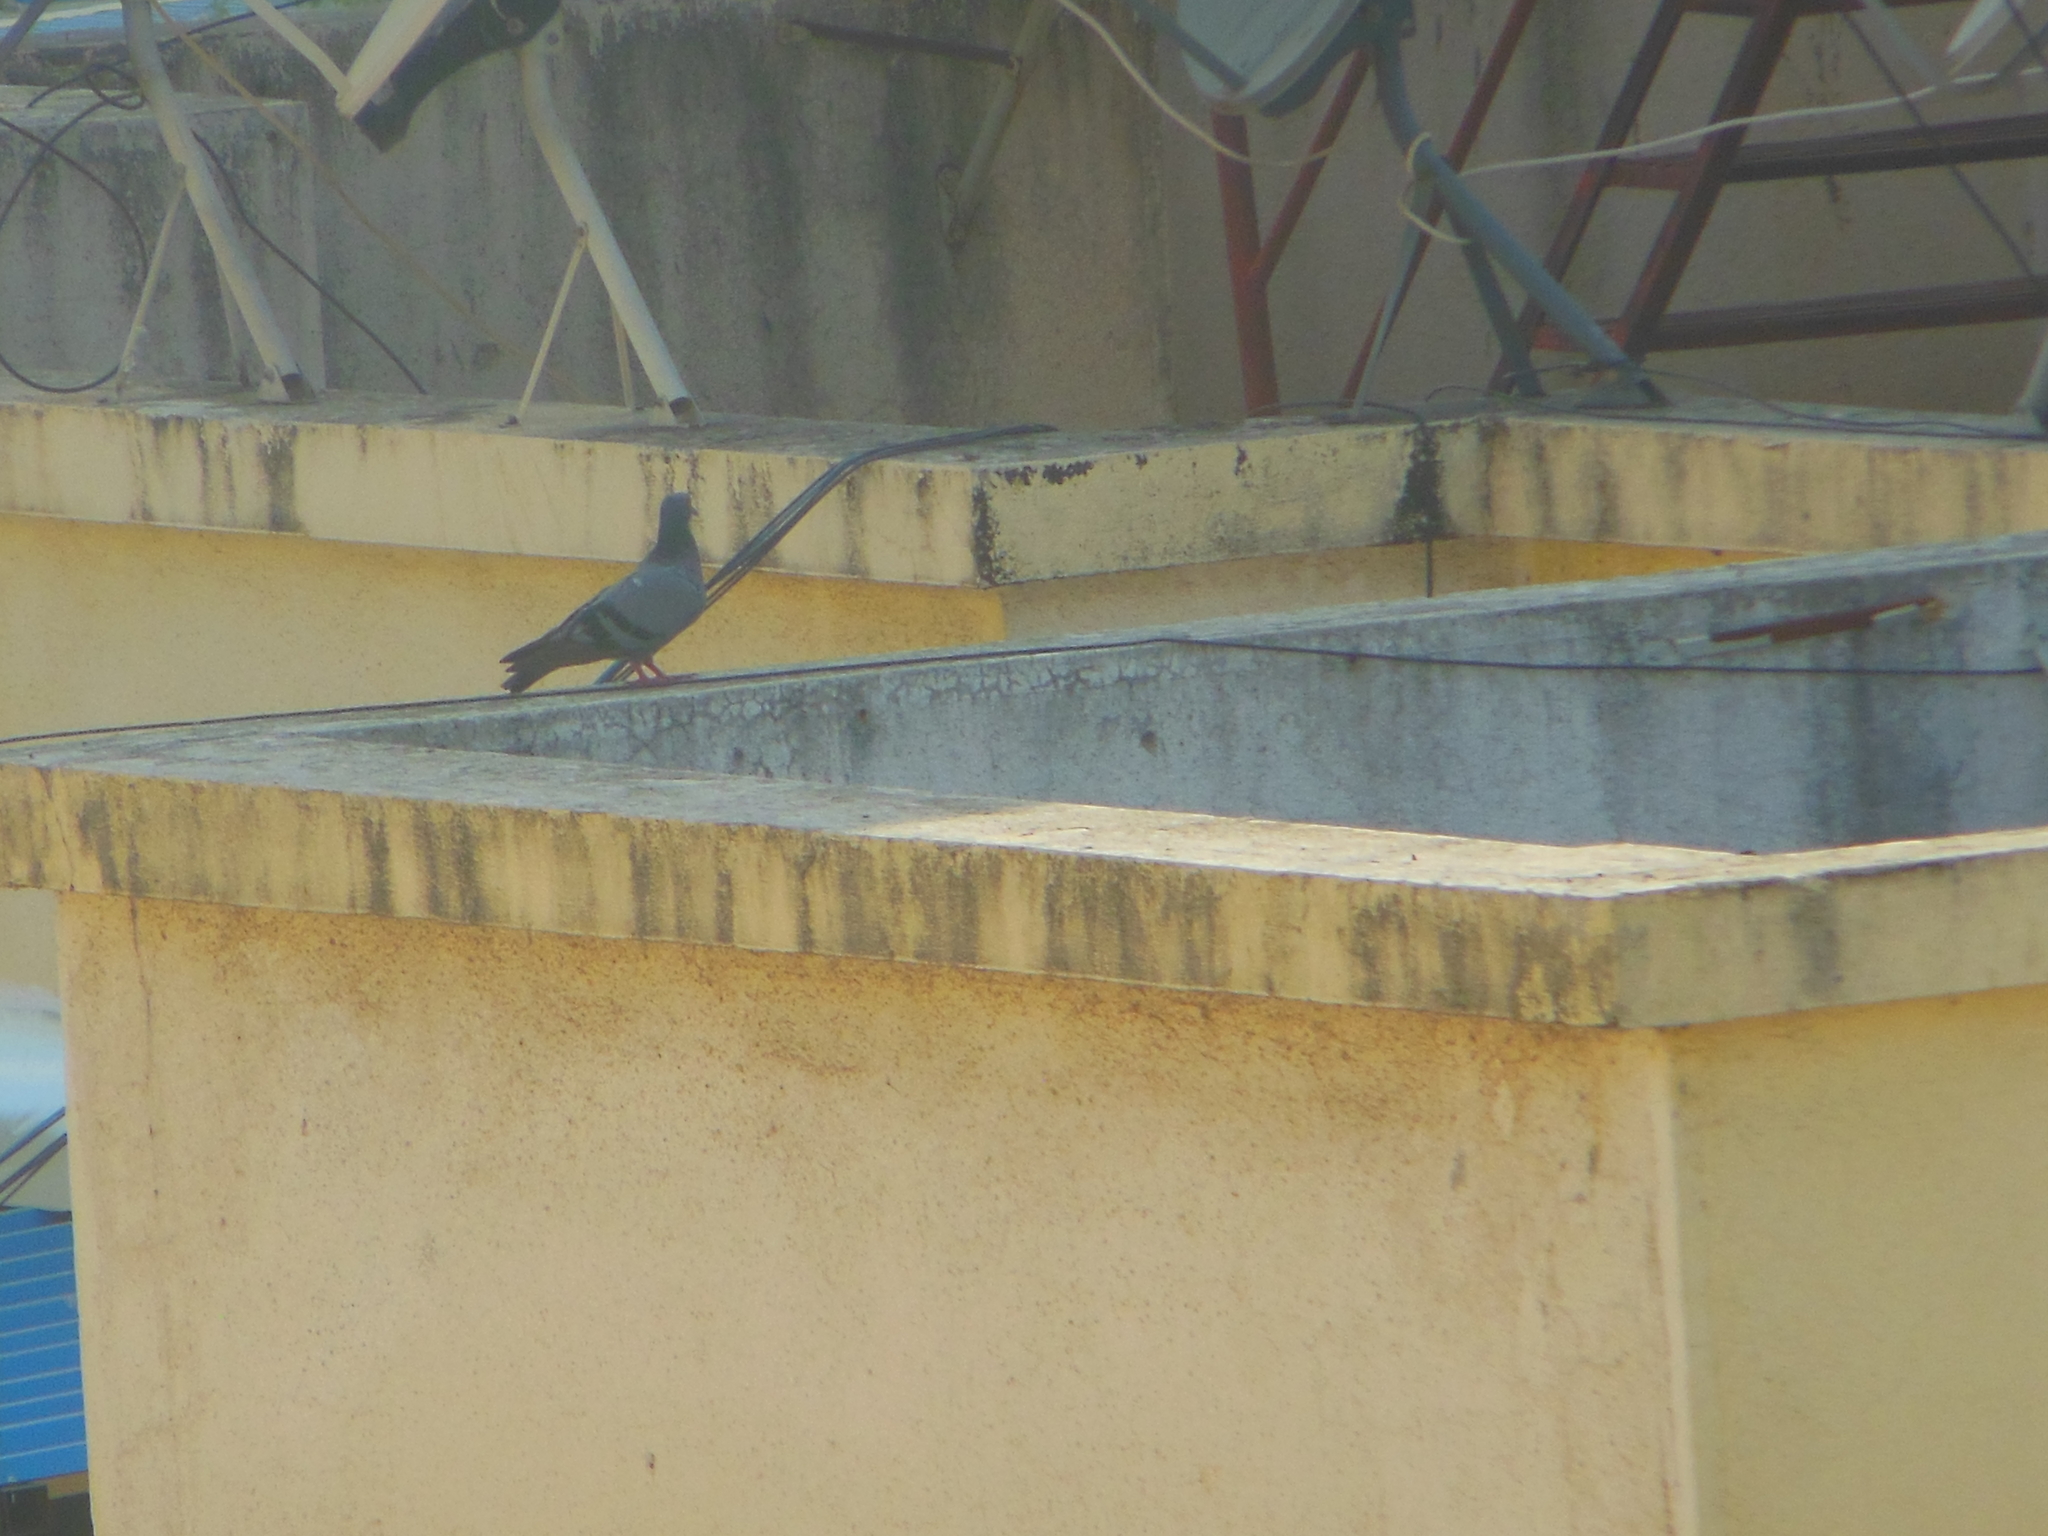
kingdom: Animalia
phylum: Chordata
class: Aves
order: Columbiformes
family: Columbidae
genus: Columba
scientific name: Columba livia
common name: Rock pigeon
